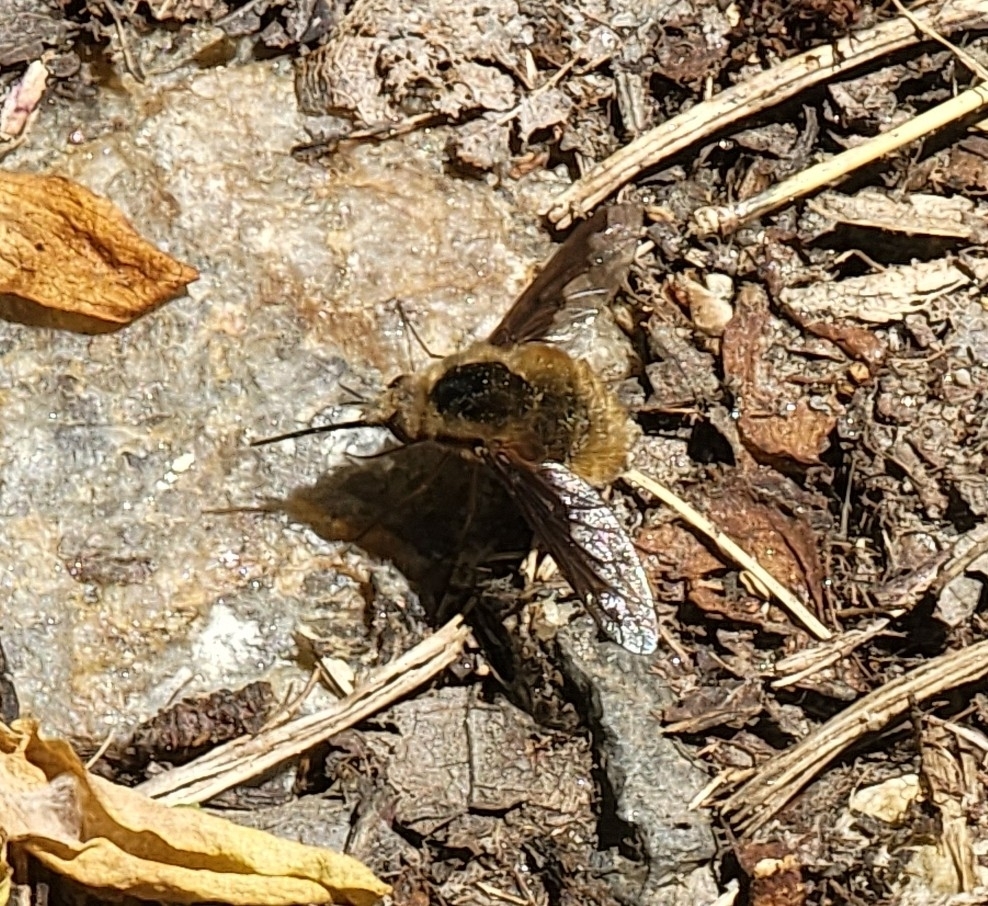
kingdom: Animalia
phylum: Arthropoda
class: Insecta
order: Diptera
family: Bombyliidae
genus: Bombylius
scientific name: Bombylius major
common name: Bee fly
